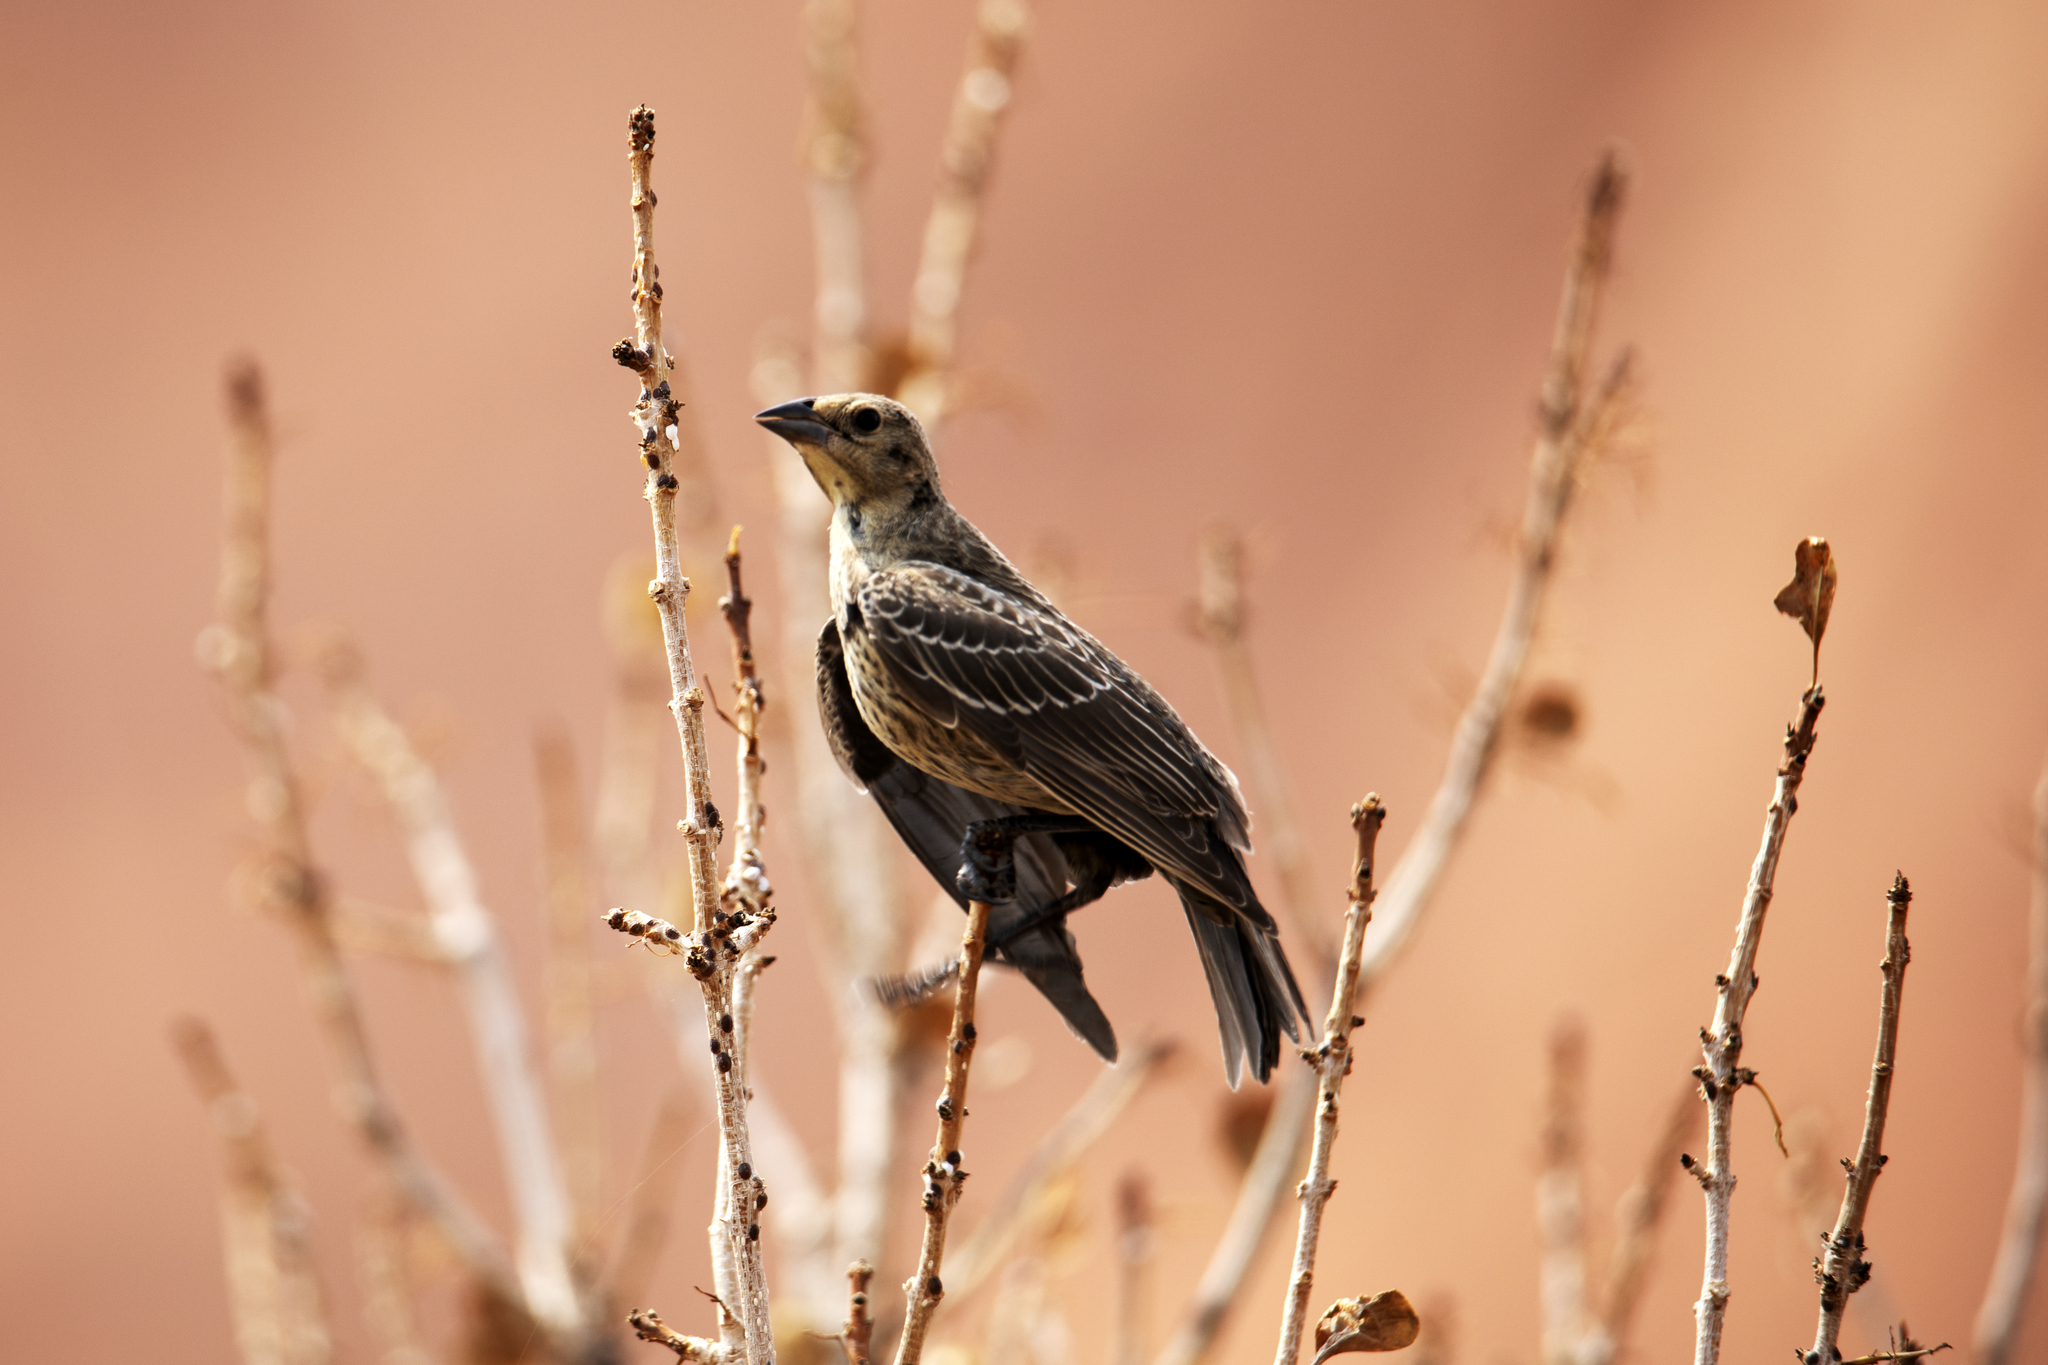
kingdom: Animalia
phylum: Chordata
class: Aves
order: Passeriformes
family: Icteridae
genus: Molothrus
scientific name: Molothrus ater
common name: Brown-headed cowbird
